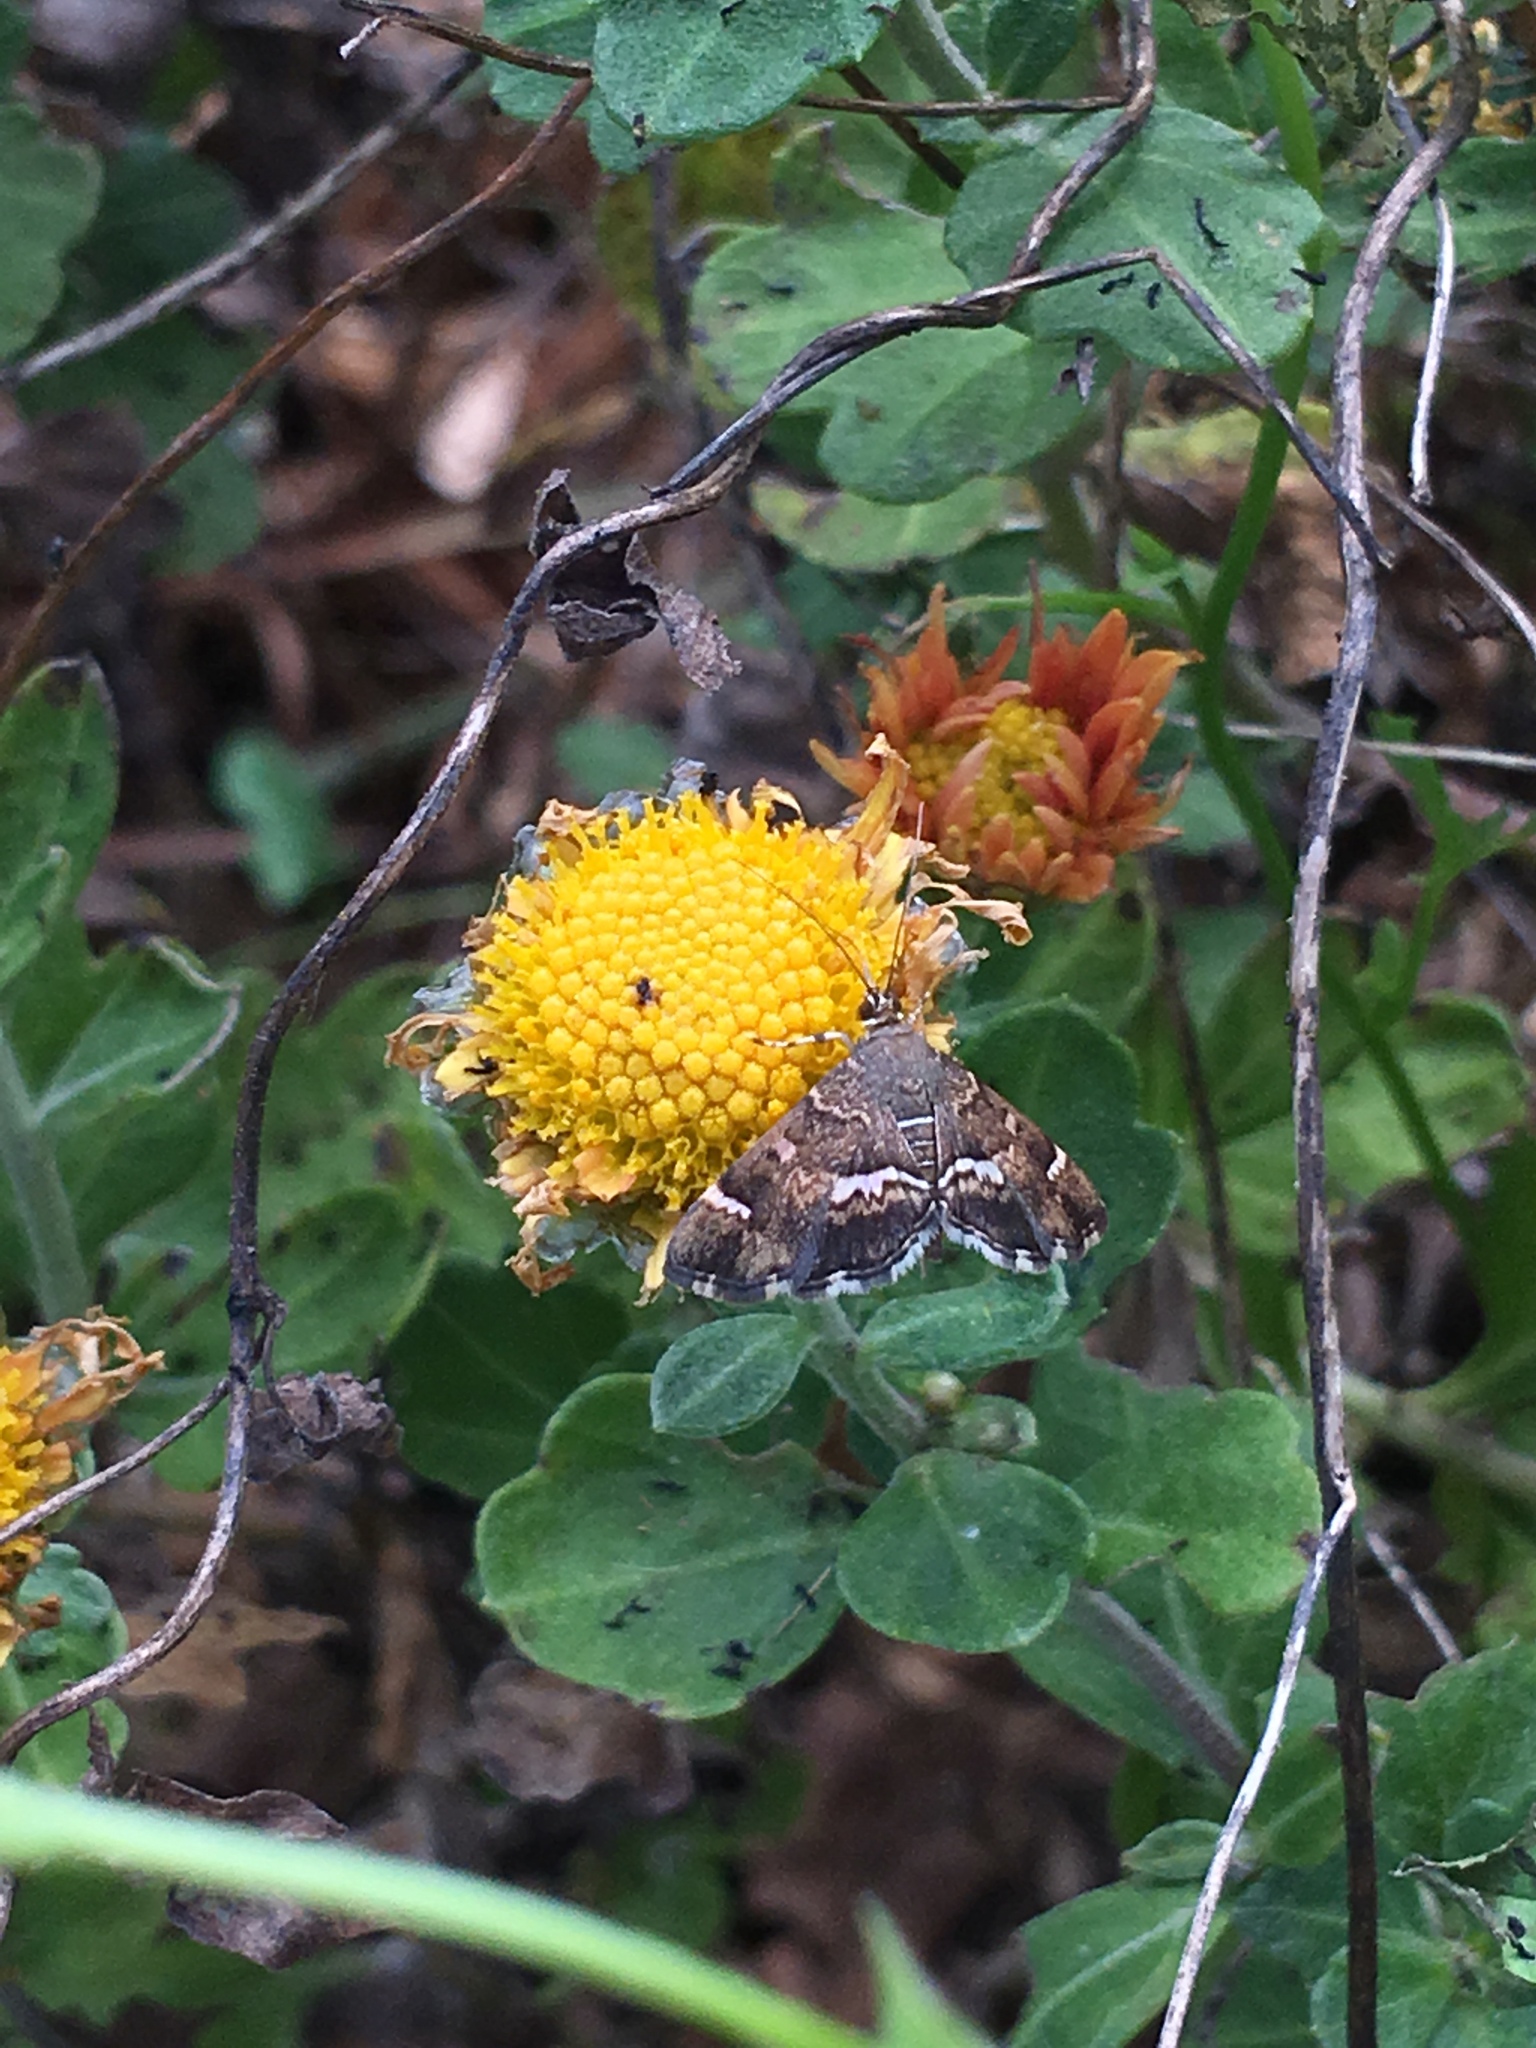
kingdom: Animalia
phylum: Arthropoda
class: Insecta
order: Lepidoptera
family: Crambidae
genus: Hymenia
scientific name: Hymenia perspectalis
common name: Spotted beet webworm
